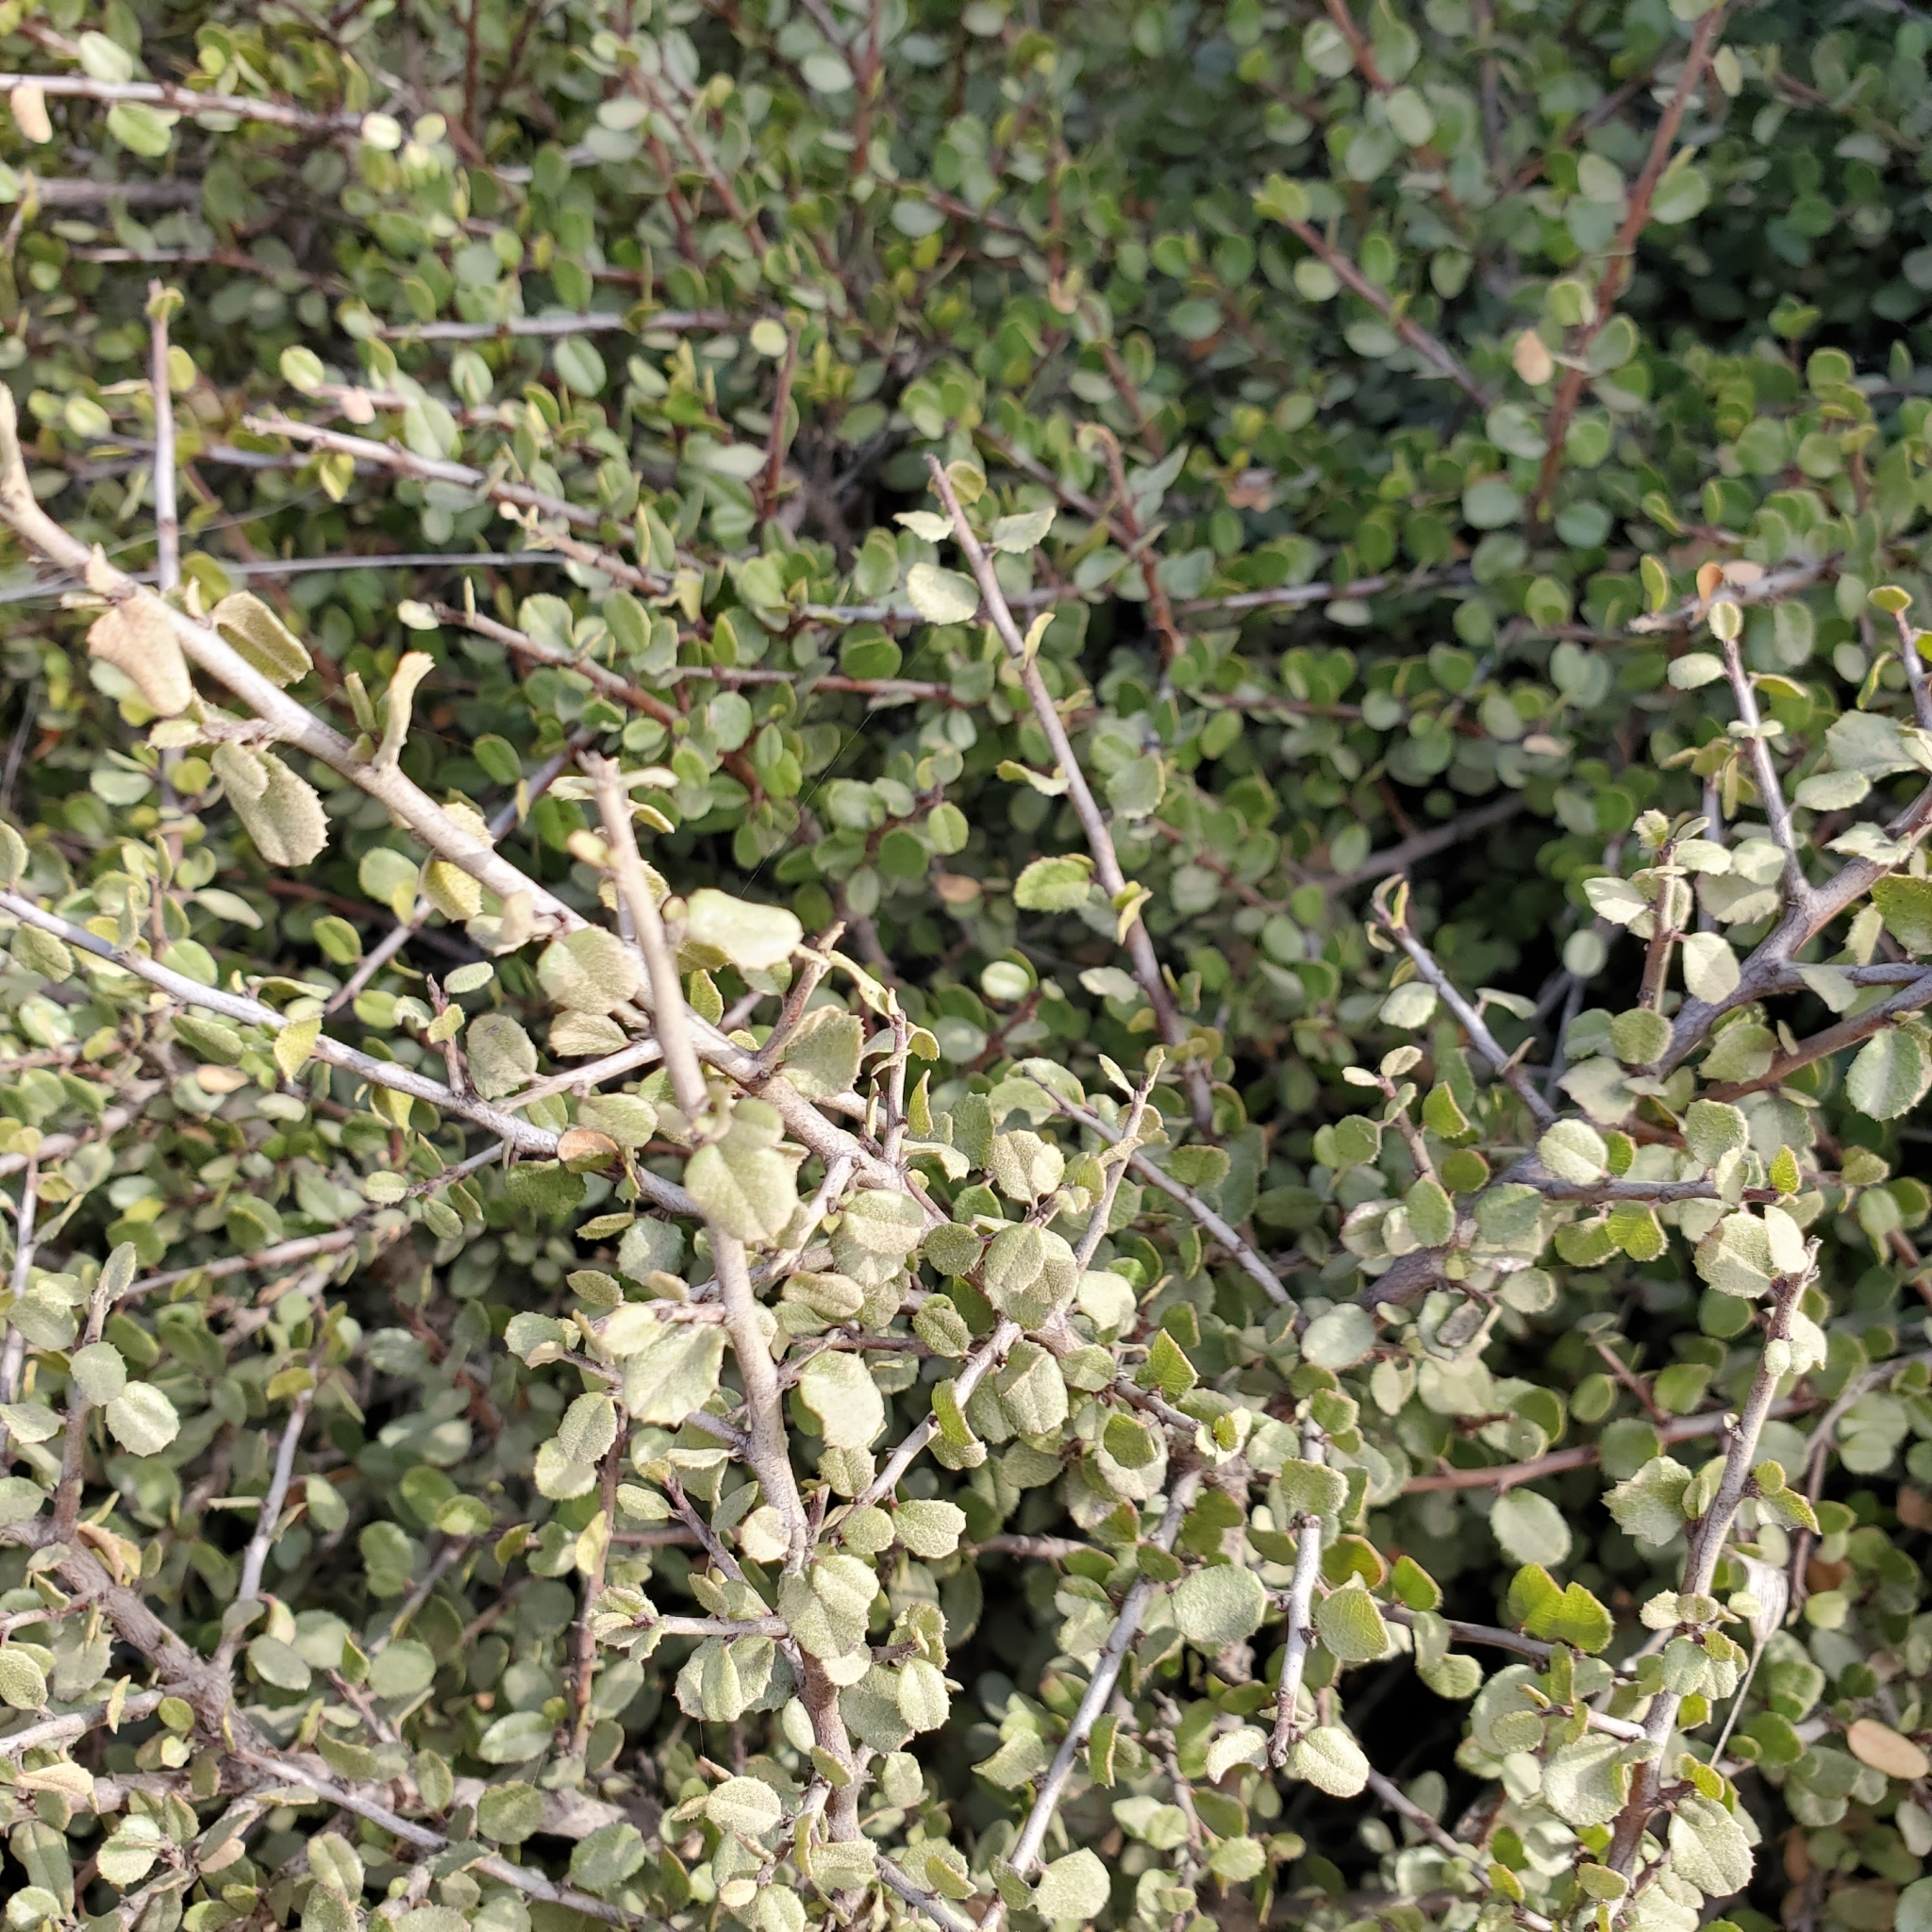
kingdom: Plantae
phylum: Tracheophyta
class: Magnoliopsida
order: Rosales
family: Rhamnaceae
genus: Endotropis
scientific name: Endotropis crocea
